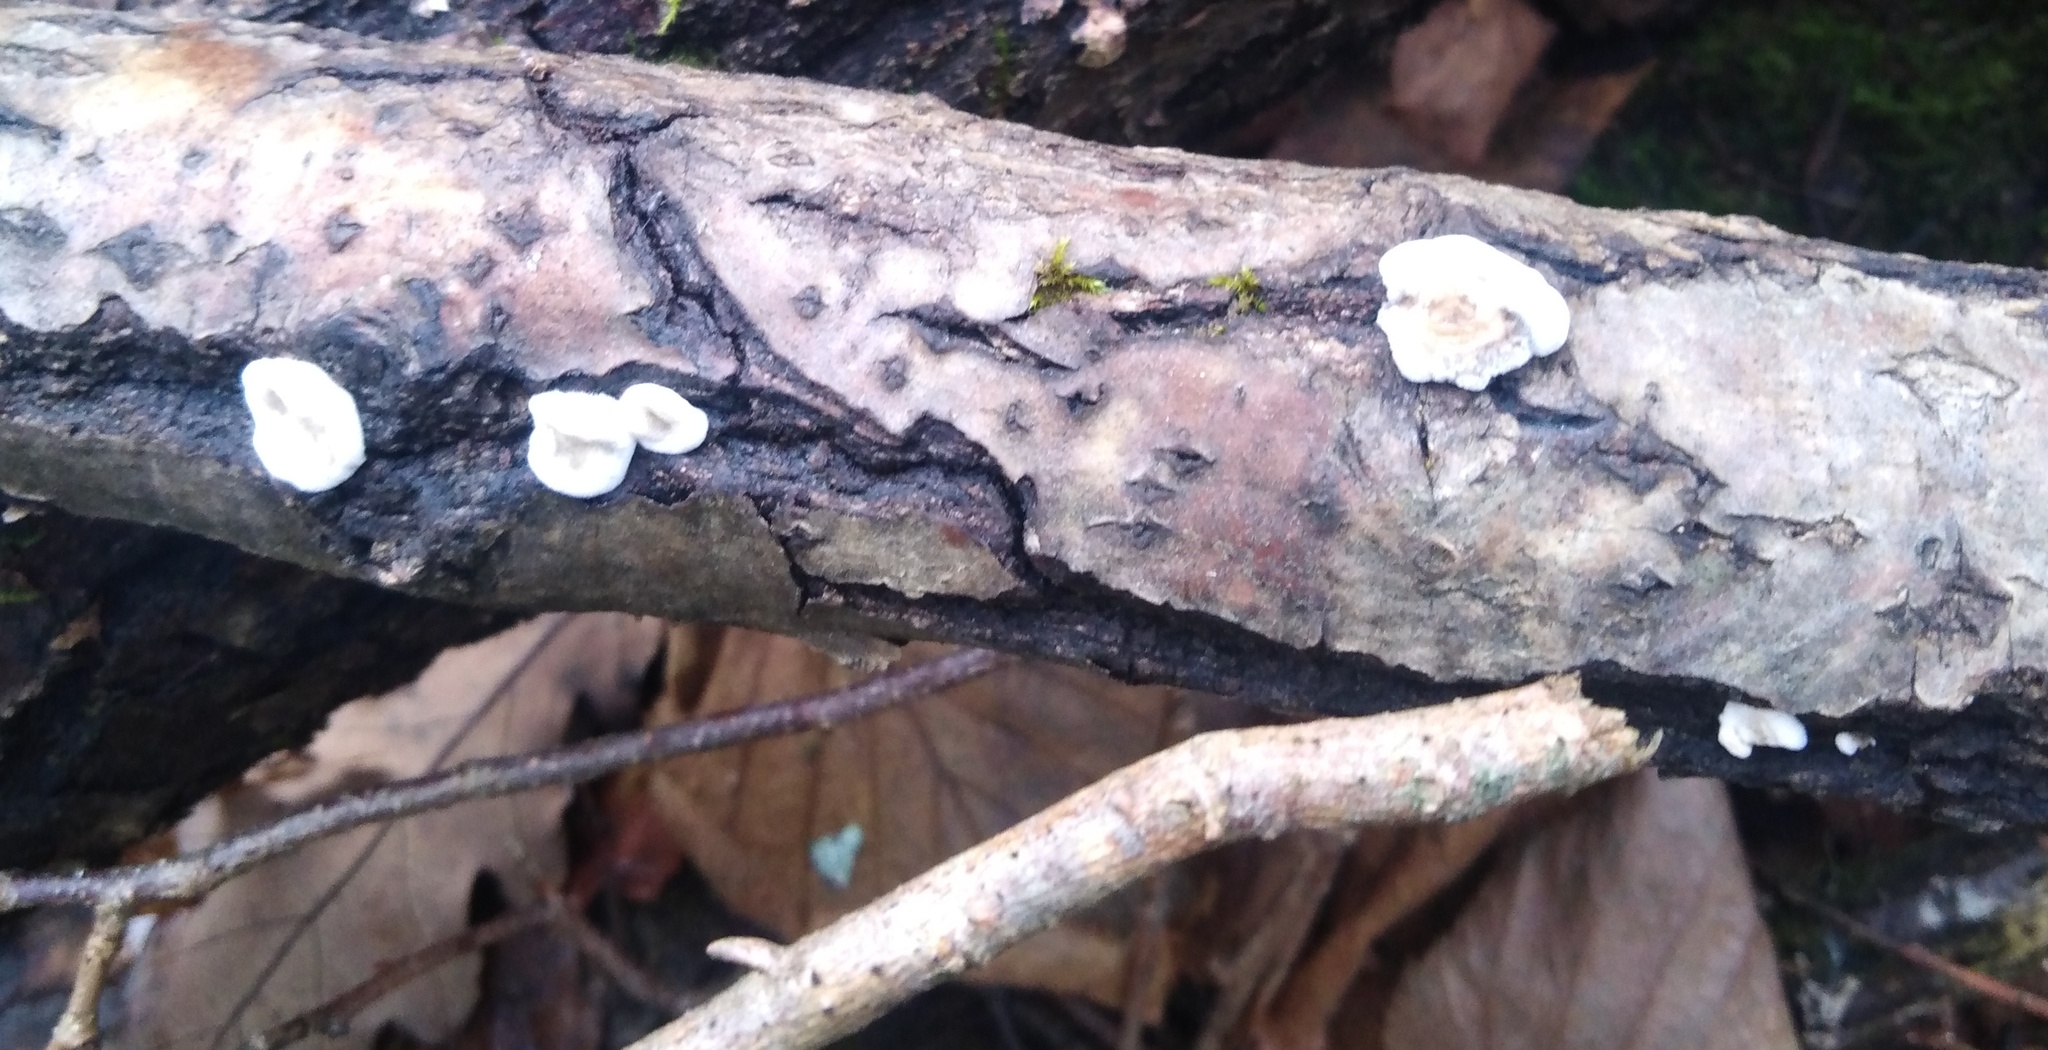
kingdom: Fungi
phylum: Basidiomycota
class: Agaricomycetes
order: Polyporales
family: Phanerochaetaceae
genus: Bjerkandera
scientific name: Bjerkandera adusta
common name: Smoky bracket
